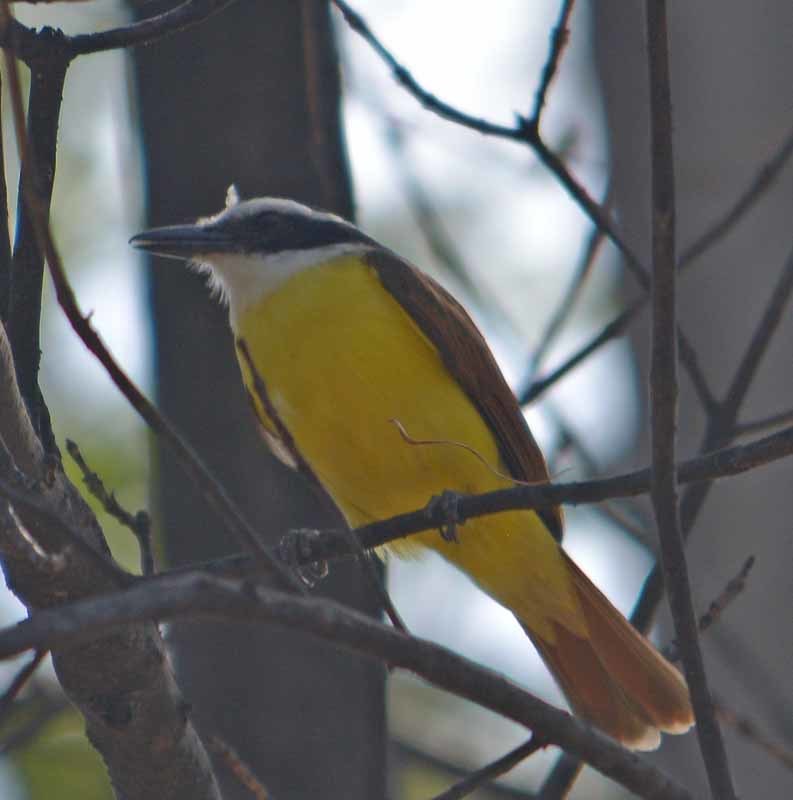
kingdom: Animalia
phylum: Chordata
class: Aves
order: Passeriformes
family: Tyrannidae
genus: Pitangus
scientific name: Pitangus sulphuratus
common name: Great kiskadee
